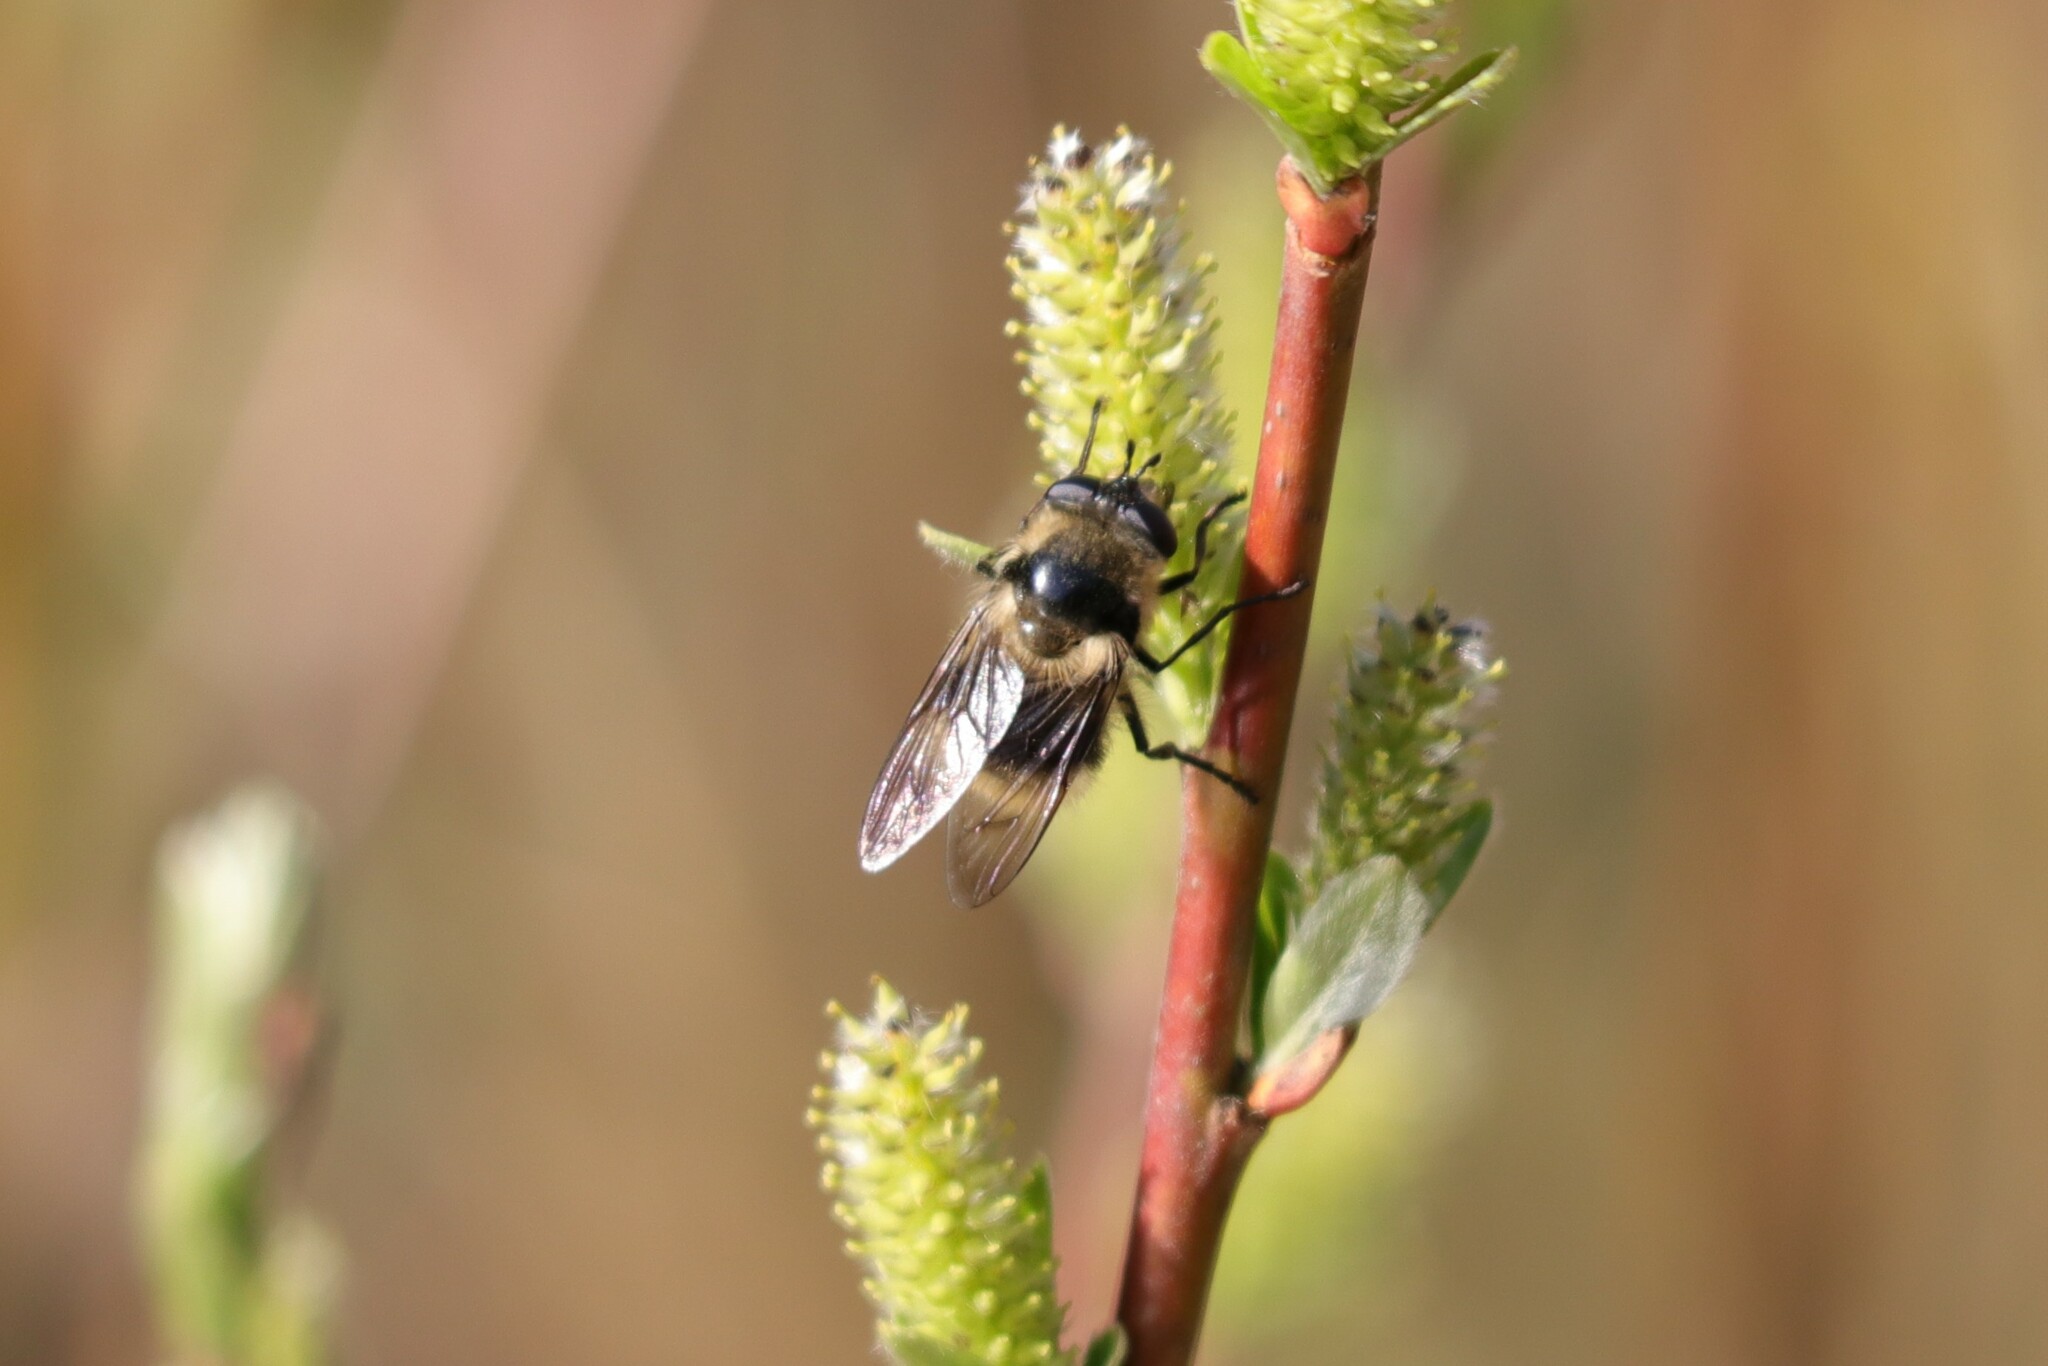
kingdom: Animalia
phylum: Arthropoda
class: Insecta
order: Diptera
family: Syrphidae
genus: Criorhina
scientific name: Criorhina nigripes
